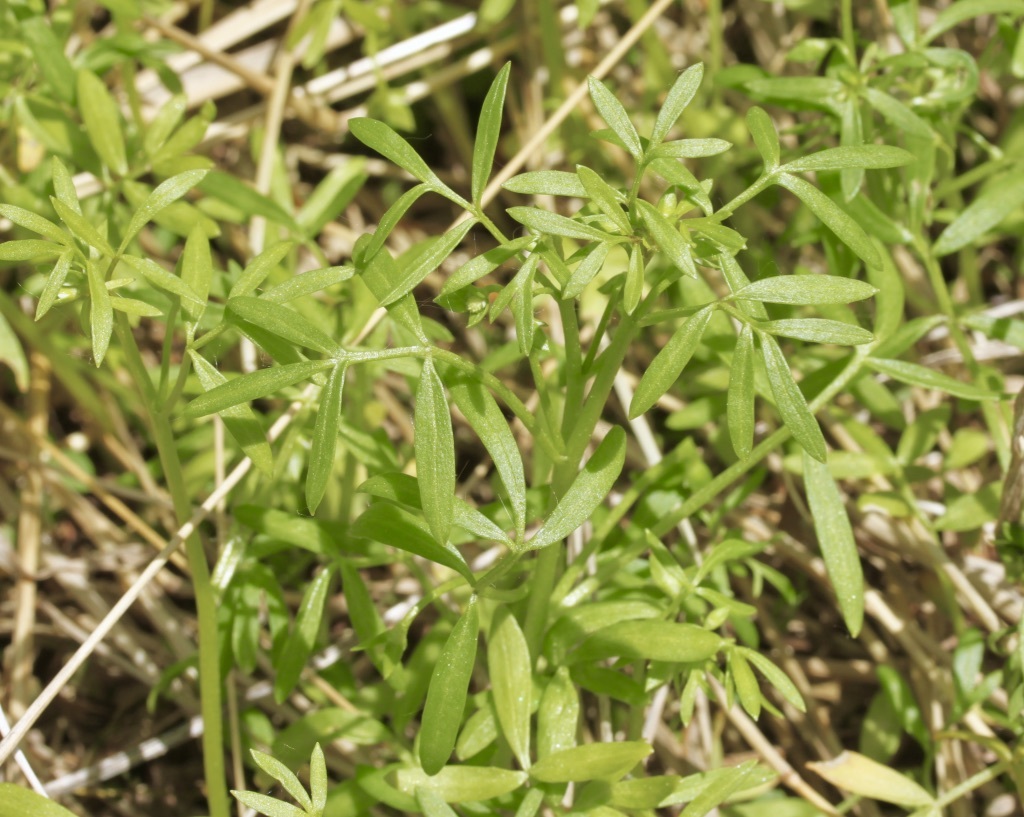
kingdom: Plantae
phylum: Tracheophyta
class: Magnoliopsida
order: Brassicales
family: Limnanthaceae
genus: Floerkea
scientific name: Floerkea proserpinacoides
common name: False mermaid
